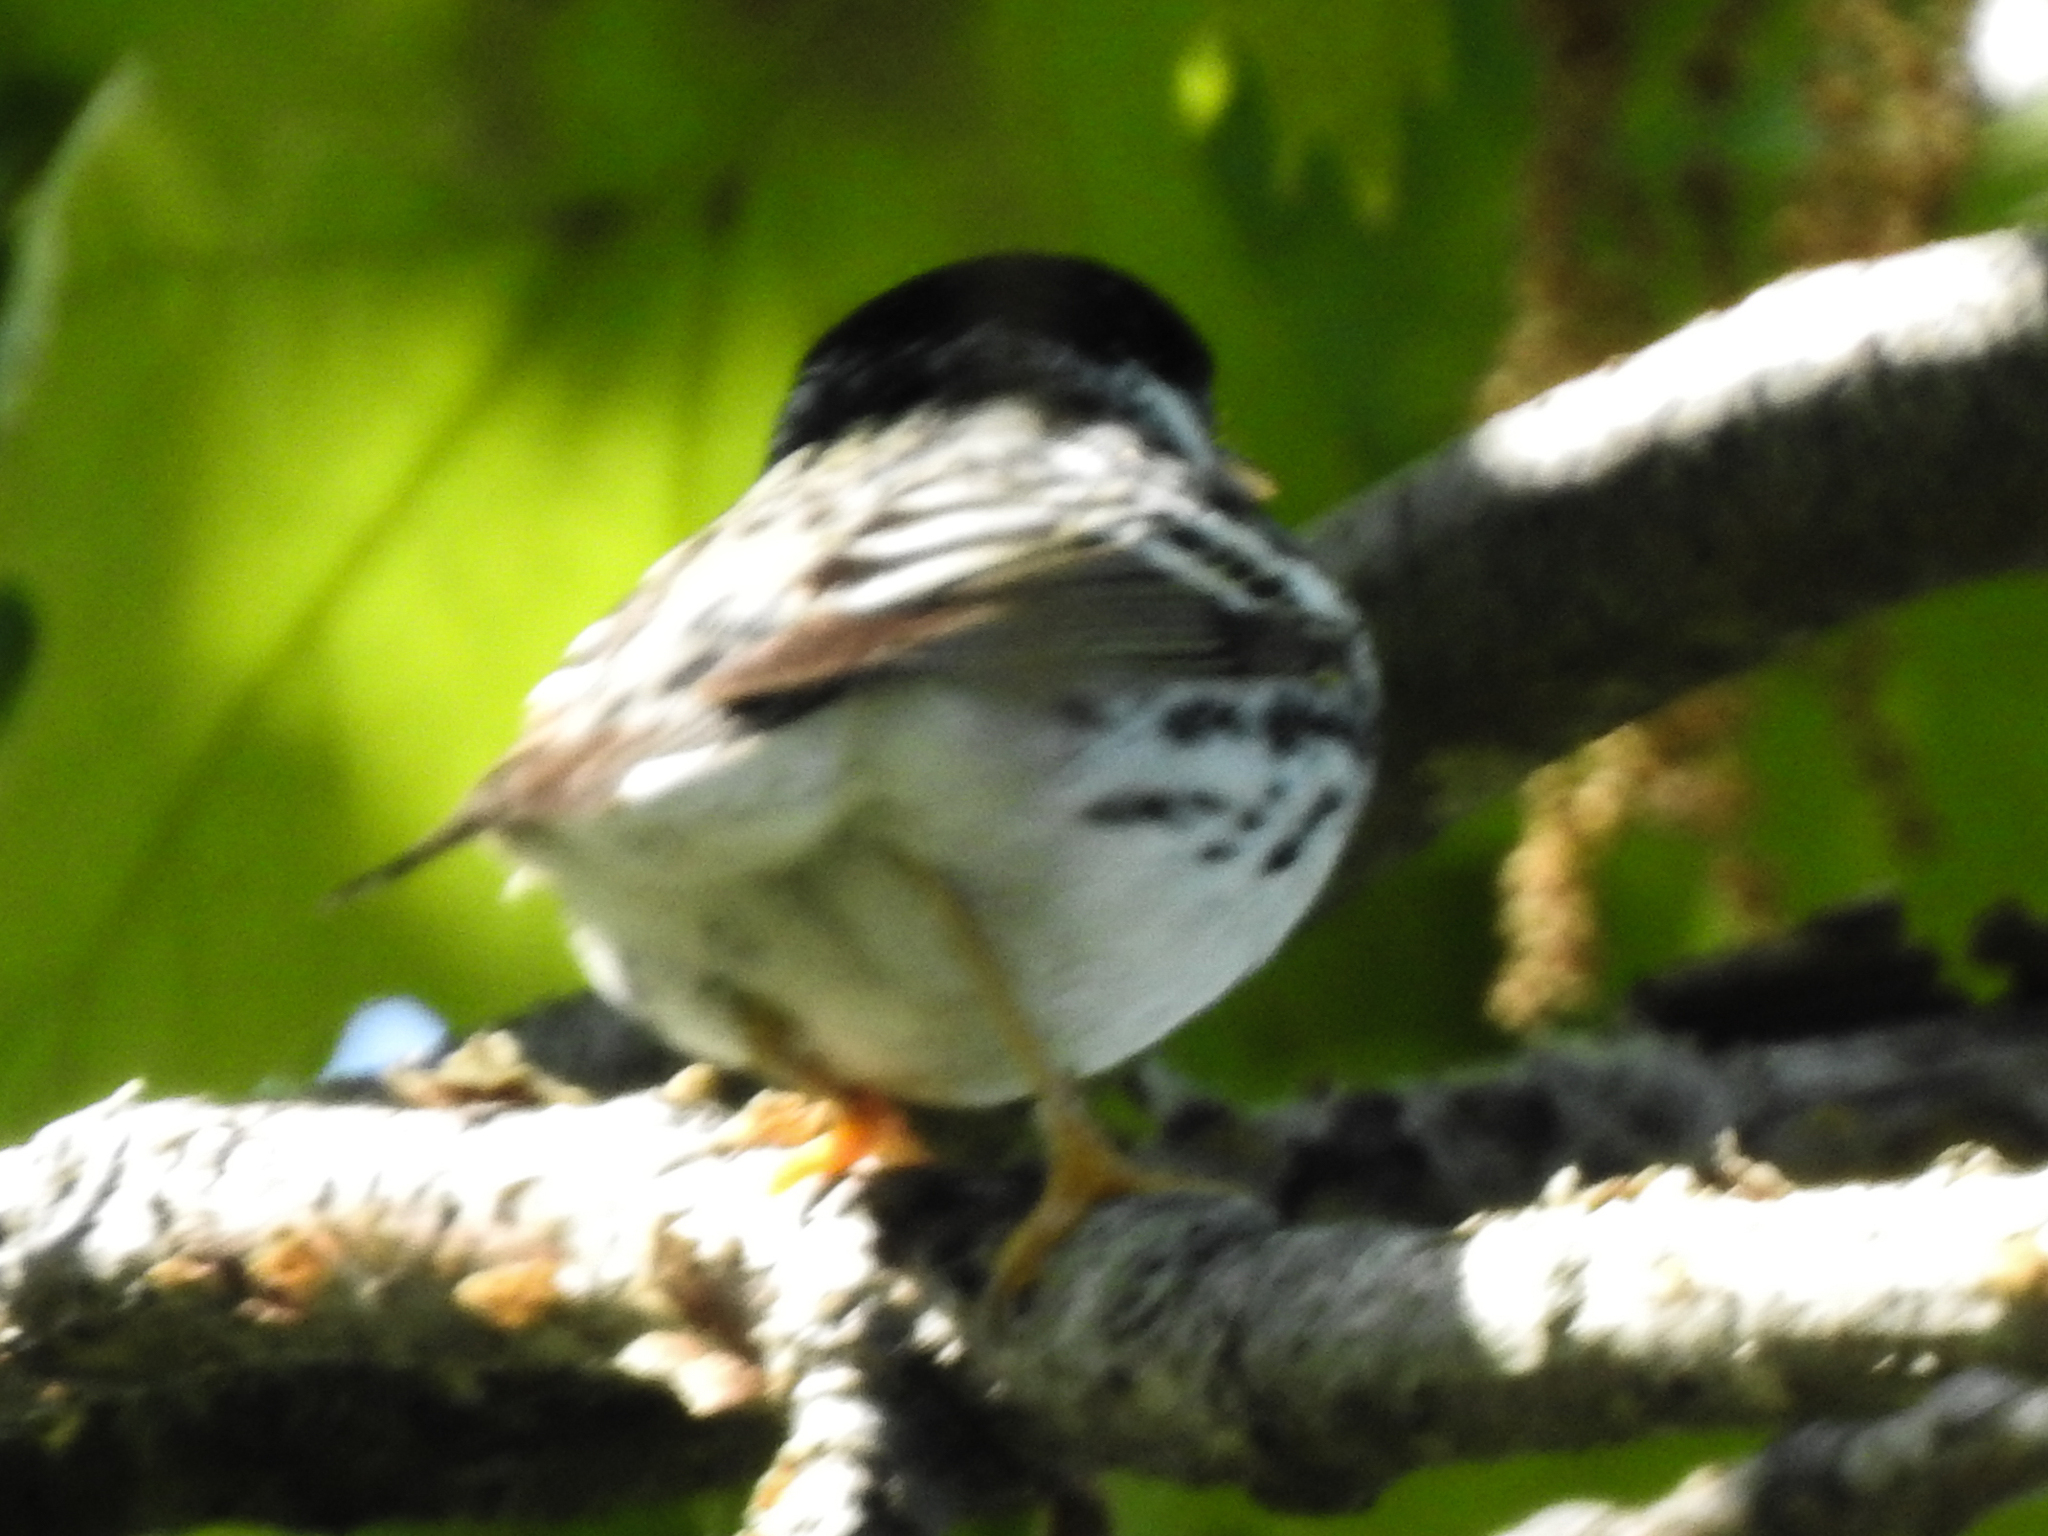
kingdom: Animalia
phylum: Chordata
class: Aves
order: Passeriformes
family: Parulidae
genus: Setophaga
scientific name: Setophaga striata
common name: Blackpoll warbler
